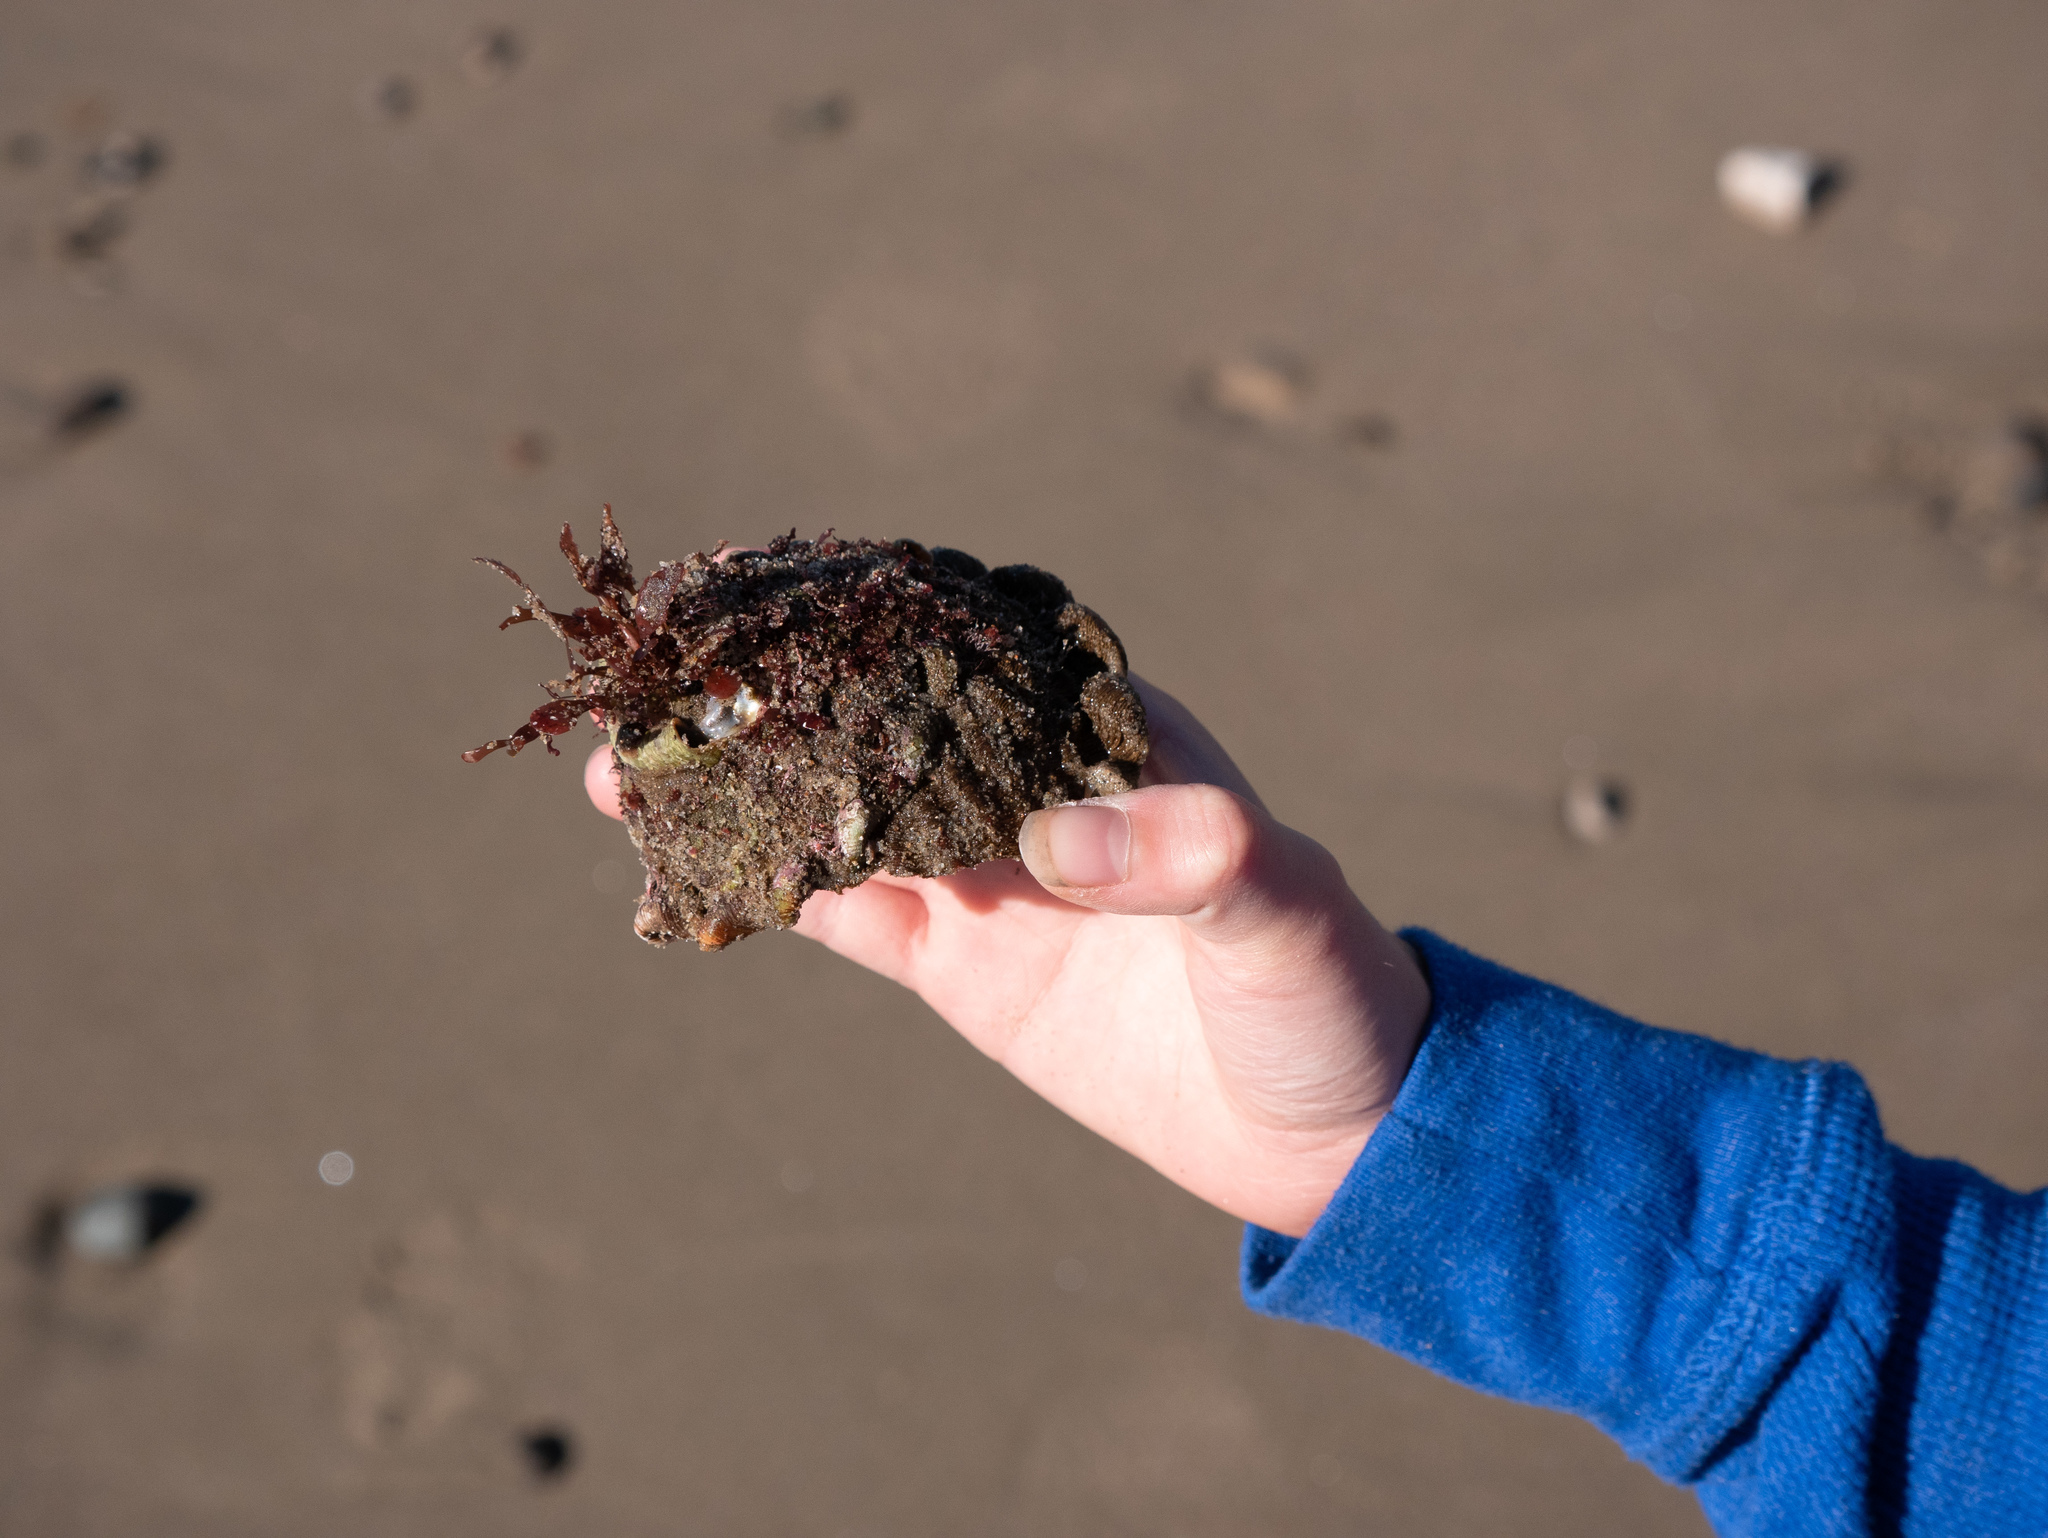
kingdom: Animalia
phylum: Mollusca
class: Gastropoda
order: Trochida
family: Turbinidae
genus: Megastraea
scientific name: Megastraea undosa
